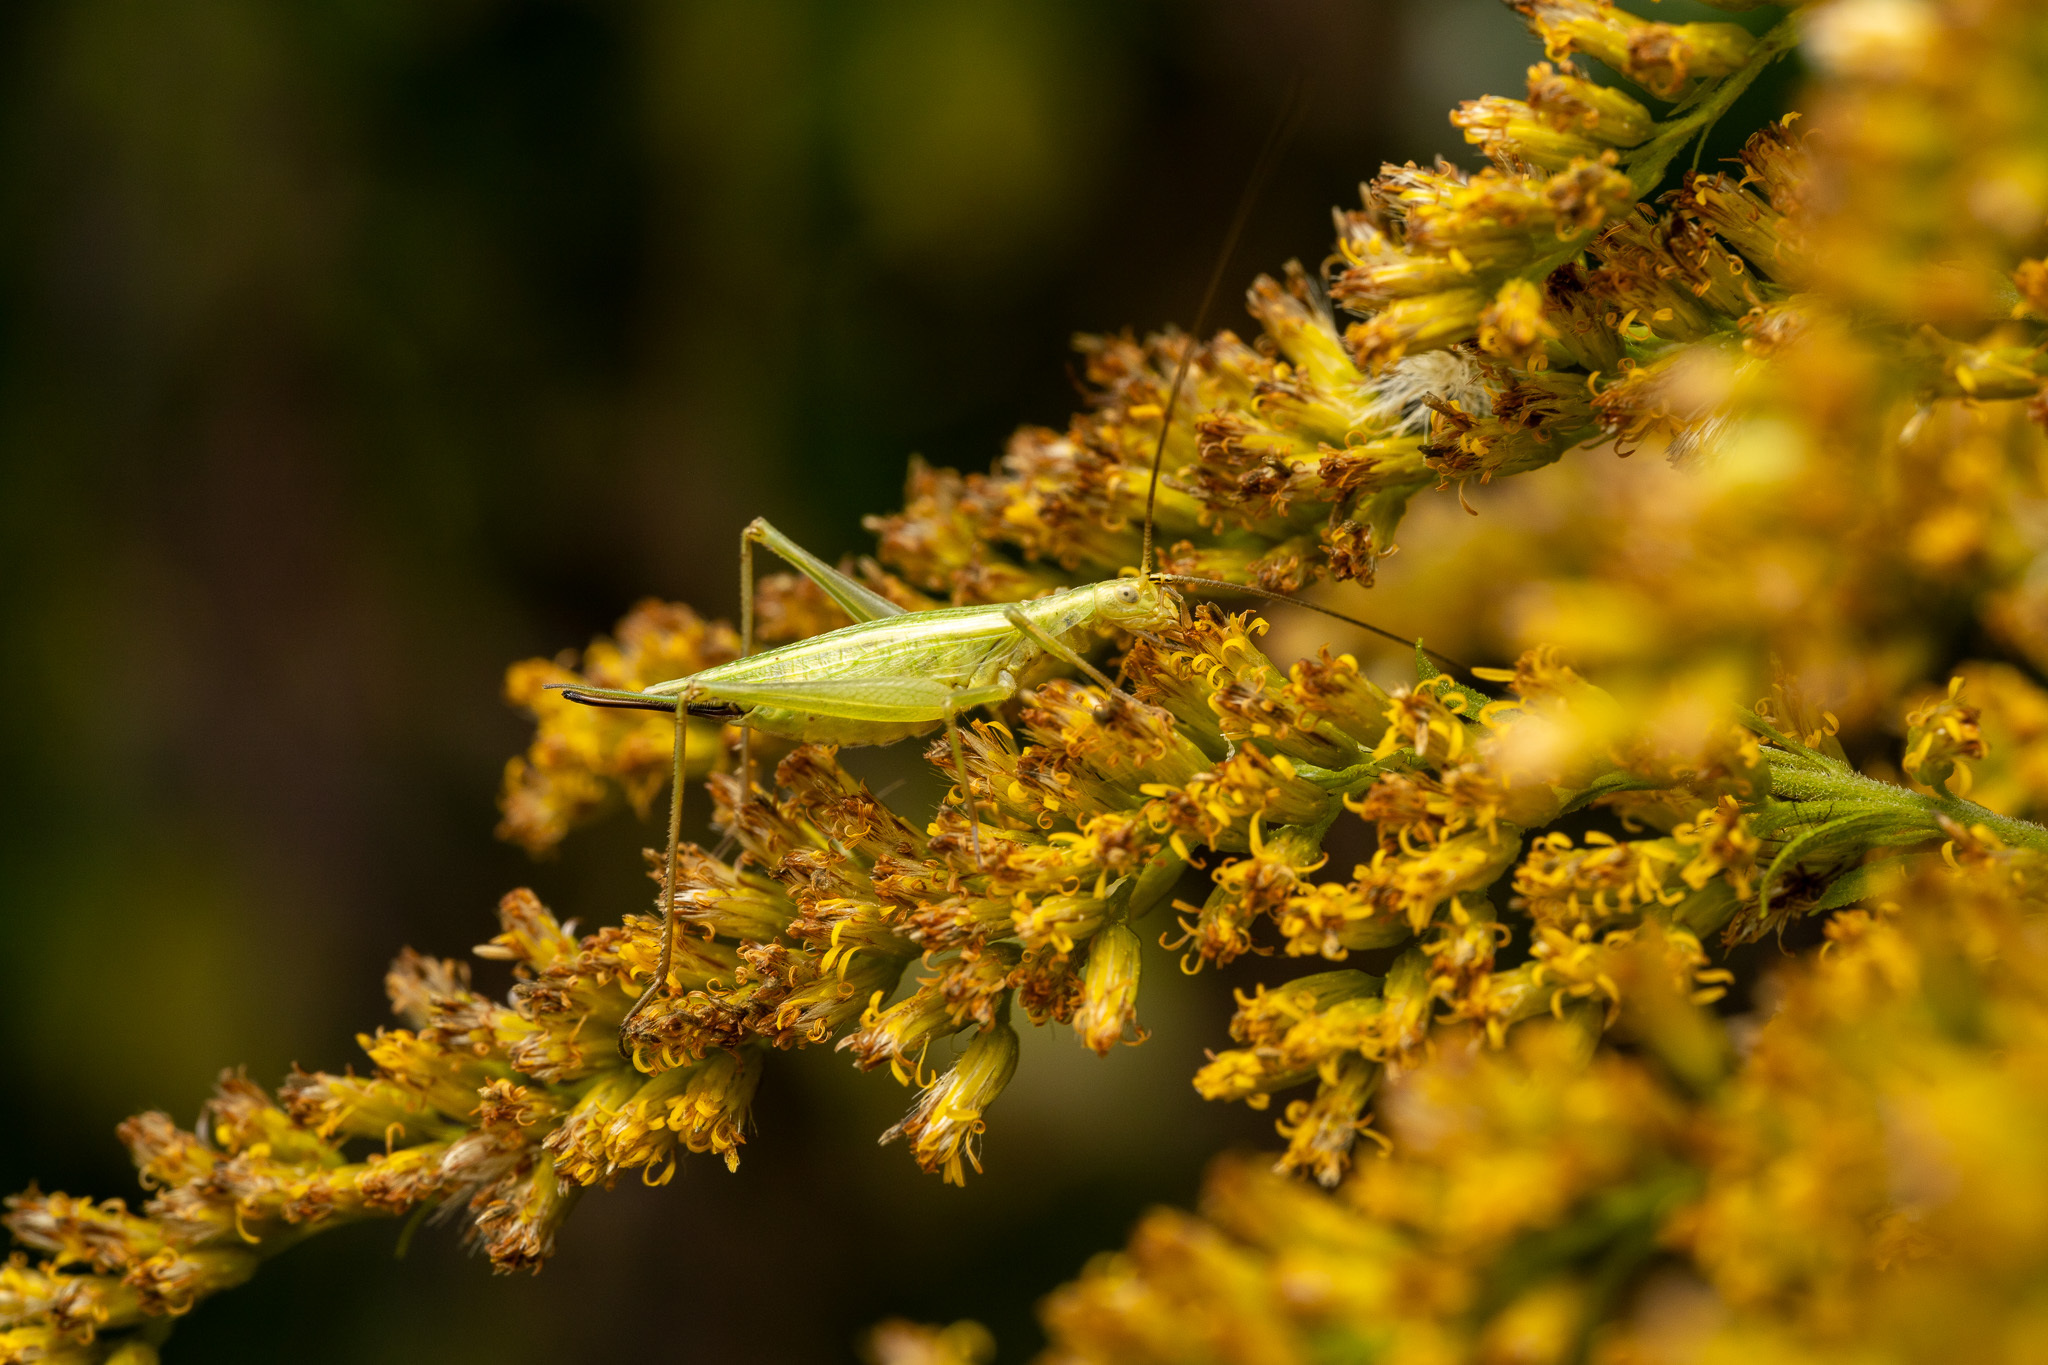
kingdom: Animalia
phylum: Arthropoda
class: Insecta
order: Orthoptera
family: Gryllidae
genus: Oecanthus
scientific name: Oecanthus nigricornis
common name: Black-horned tree cricket
